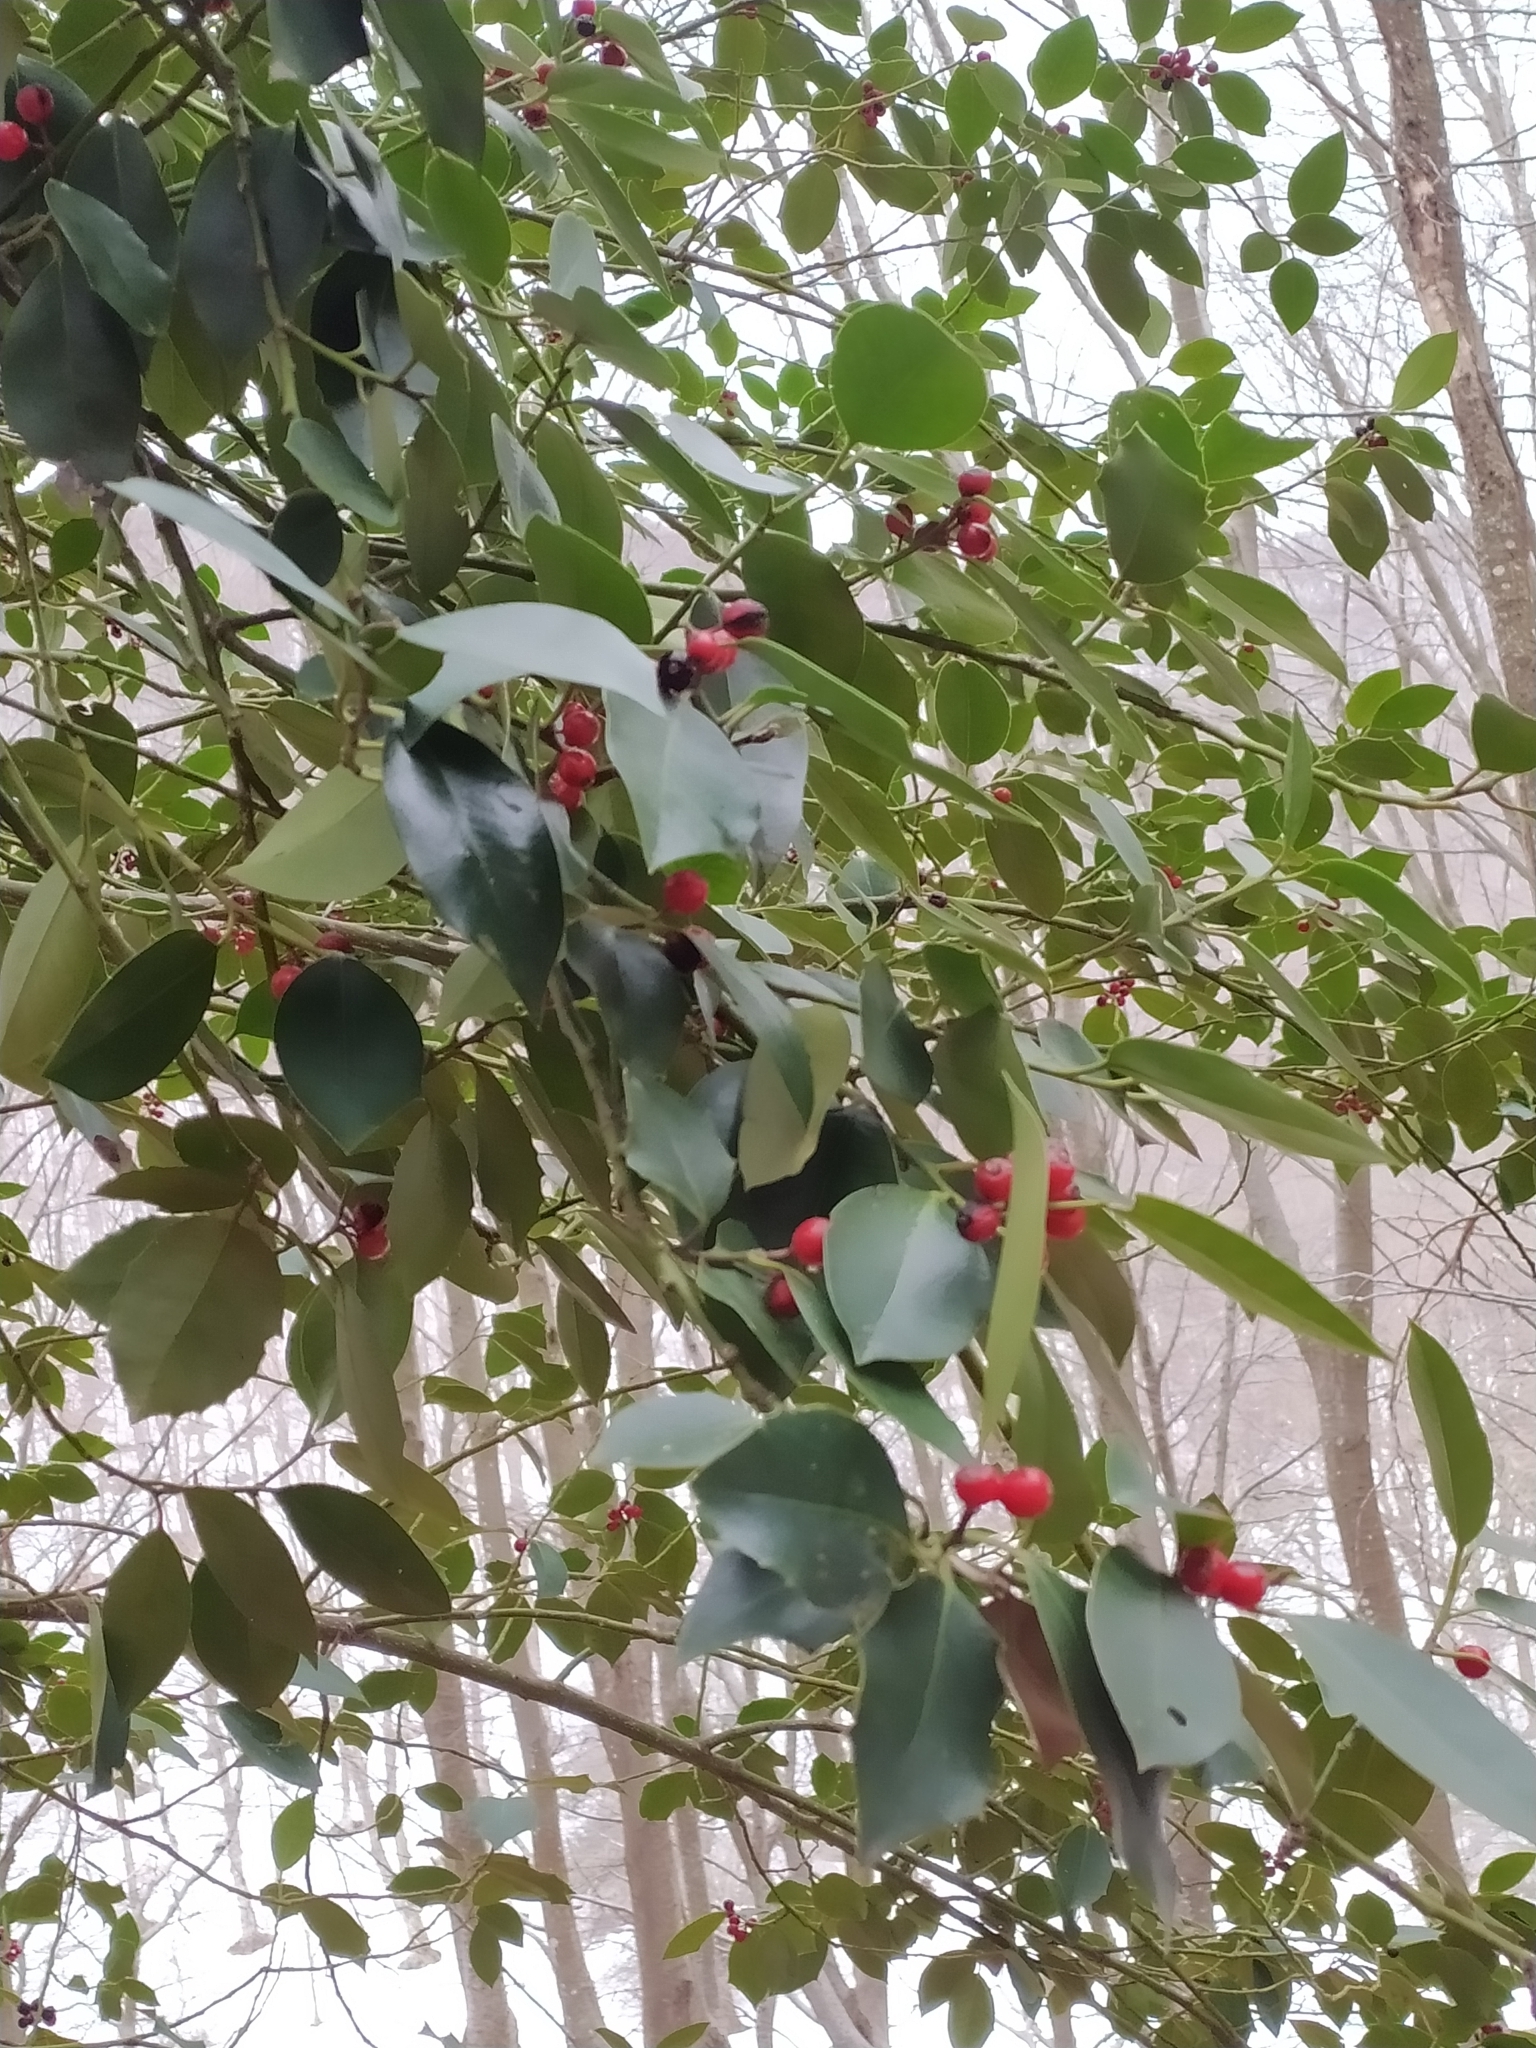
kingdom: Plantae
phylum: Tracheophyta
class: Magnoliopsida
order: Aquifoliales
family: Aquifoliaceae
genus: Ilex
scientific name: Ilex aquifolium
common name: English holly
